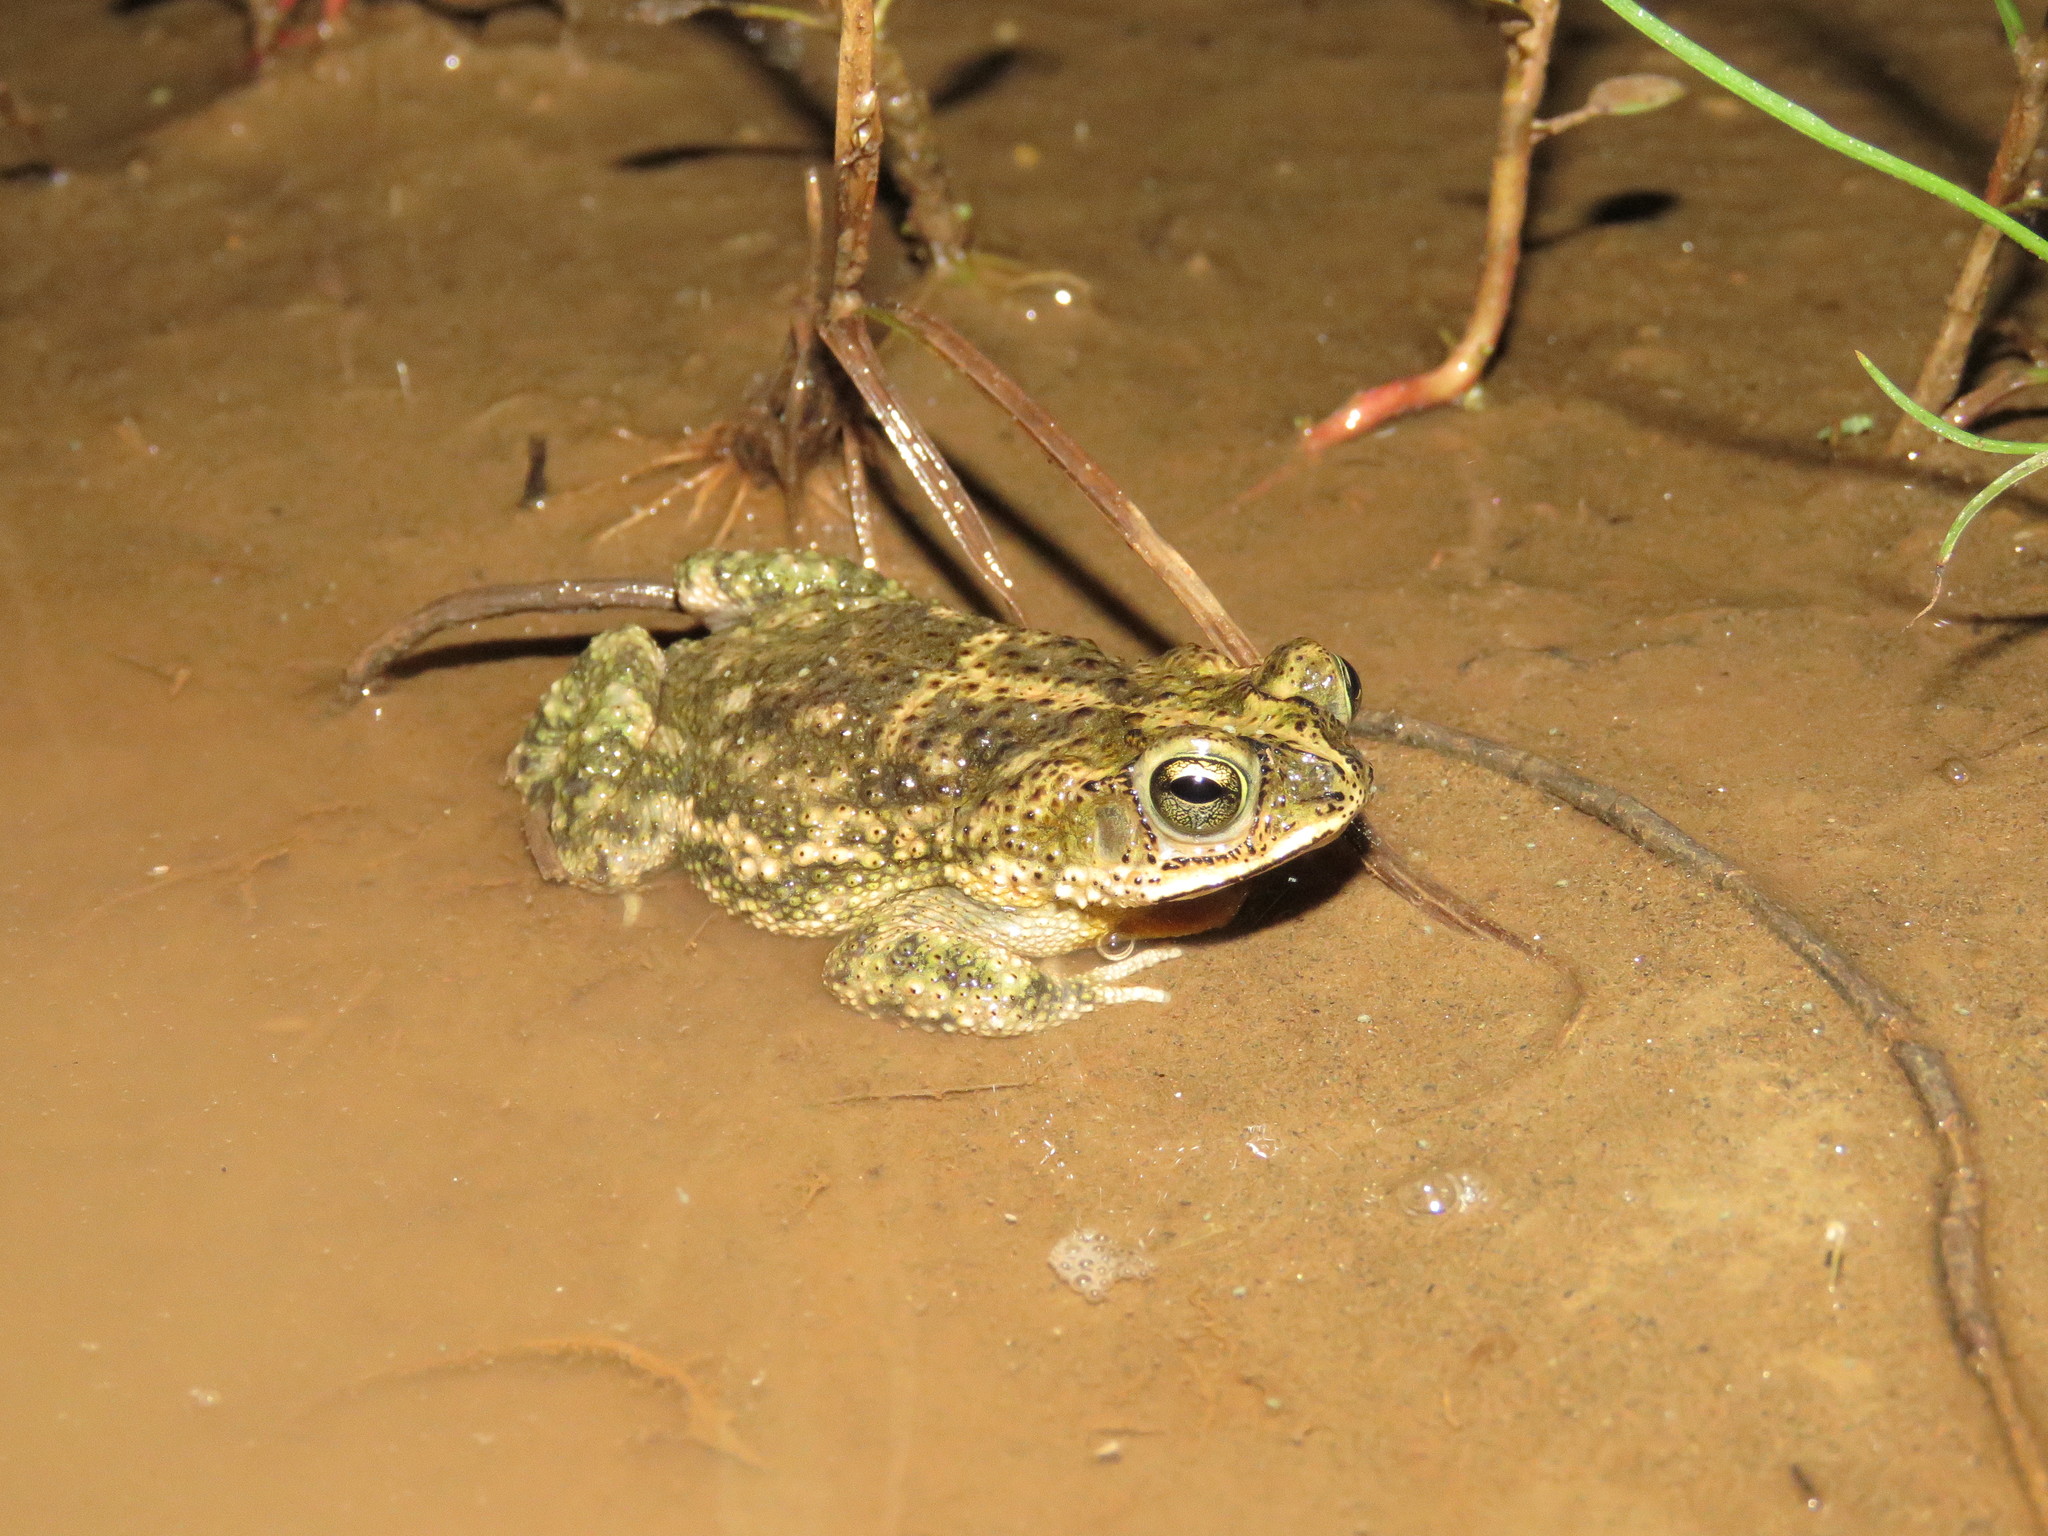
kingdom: Animalia
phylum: Chordata
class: Amphibia
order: Anura
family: Bufonidae
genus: Rhinella
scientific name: Rhinella major
